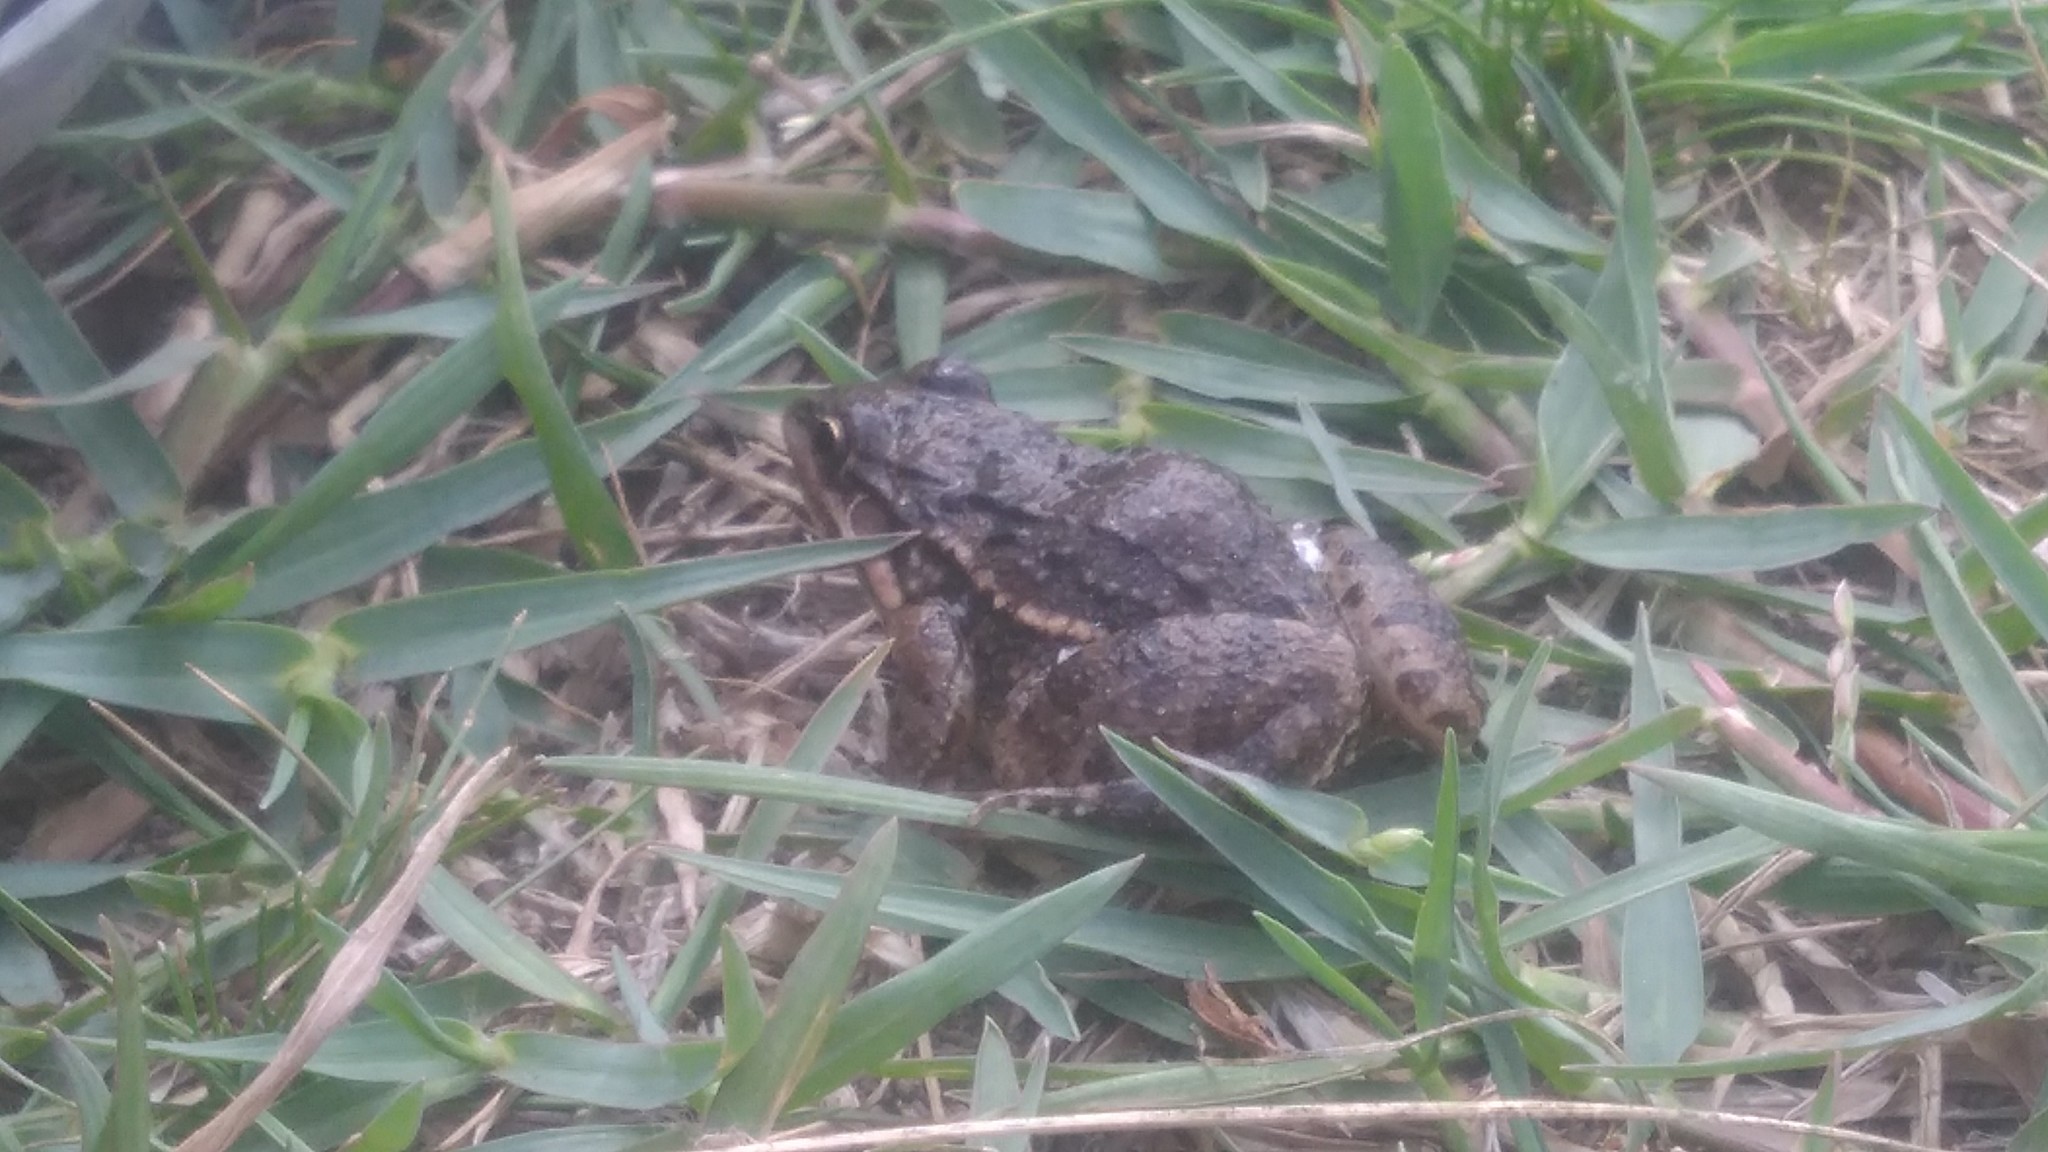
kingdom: Animalia
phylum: Chordata
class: Amphibia
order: Anura
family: Leptodactylidae
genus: Leptodactylus
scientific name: Leptodactylus latinasus
